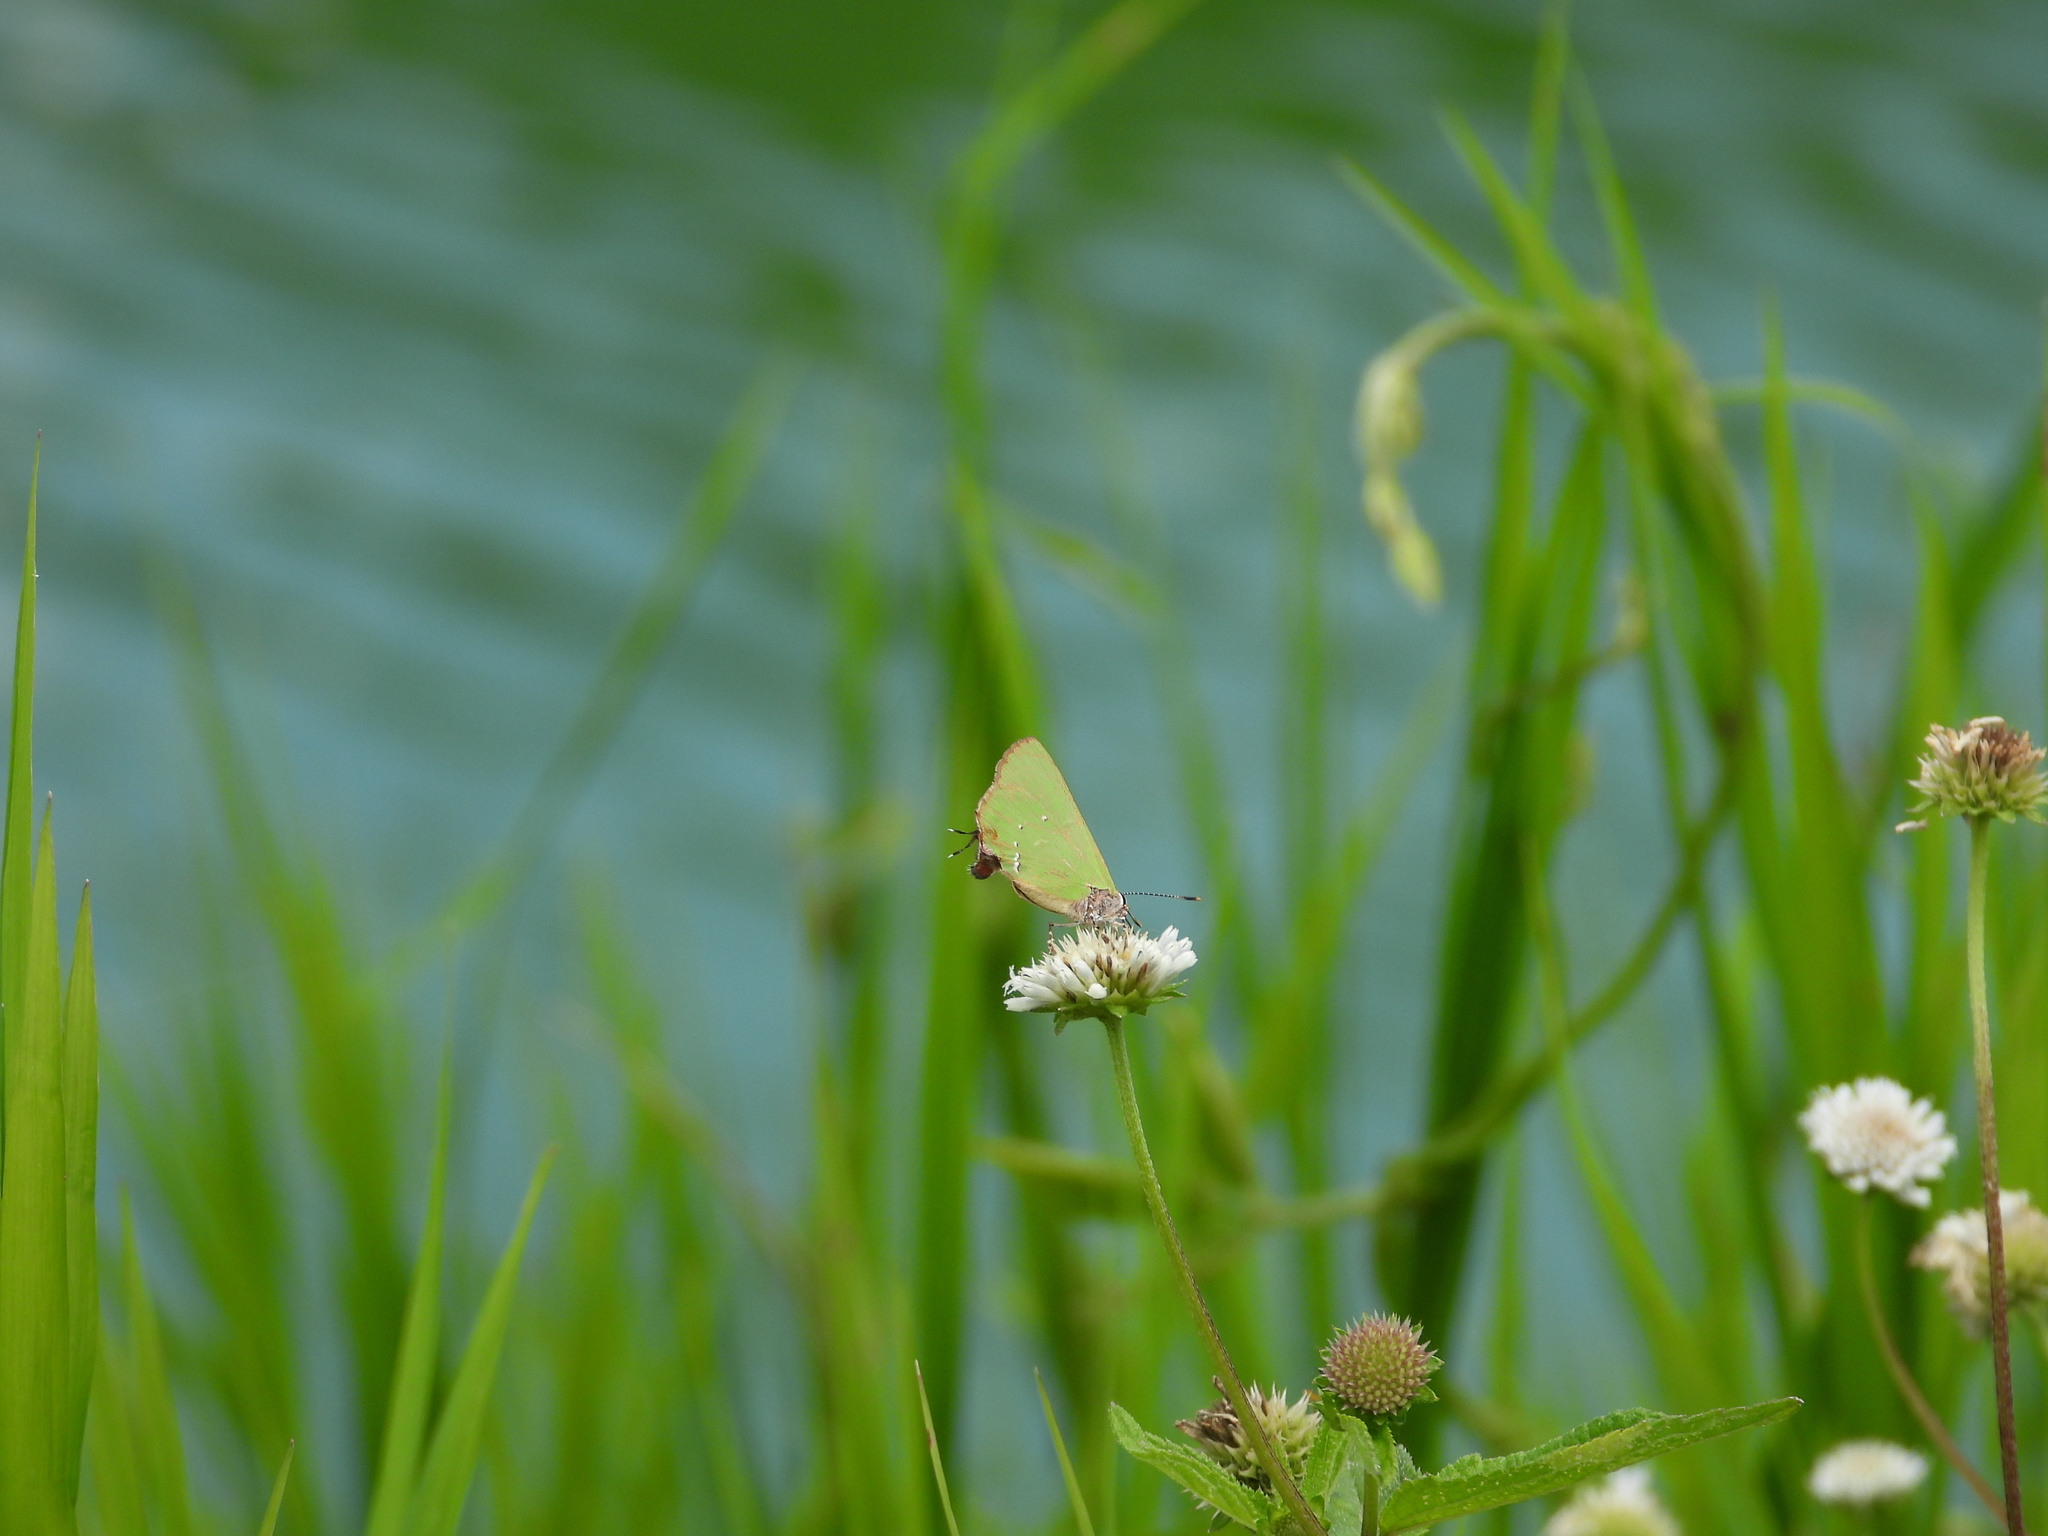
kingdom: Animalia
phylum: Arthropoda
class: Insecta
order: Lepidoptera
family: Lycaenidae
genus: Thecla
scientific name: Thecla amyntor
